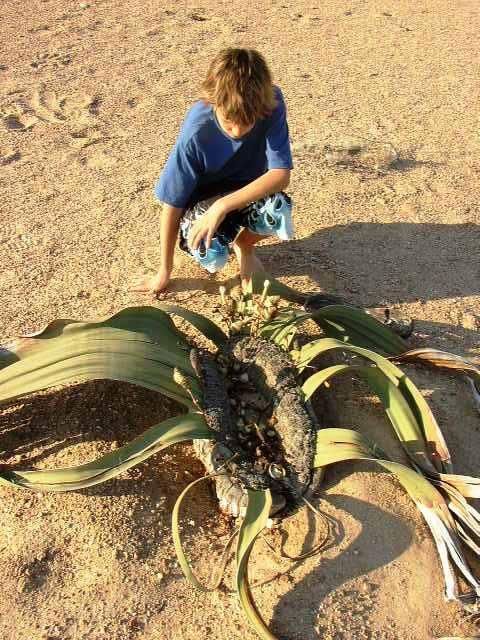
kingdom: Plantae
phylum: Tracheophyta
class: Gnetopsida
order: Welwitschiales
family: Welwitschiaceae
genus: Welwitschia
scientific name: Welwitschia mirabilis
